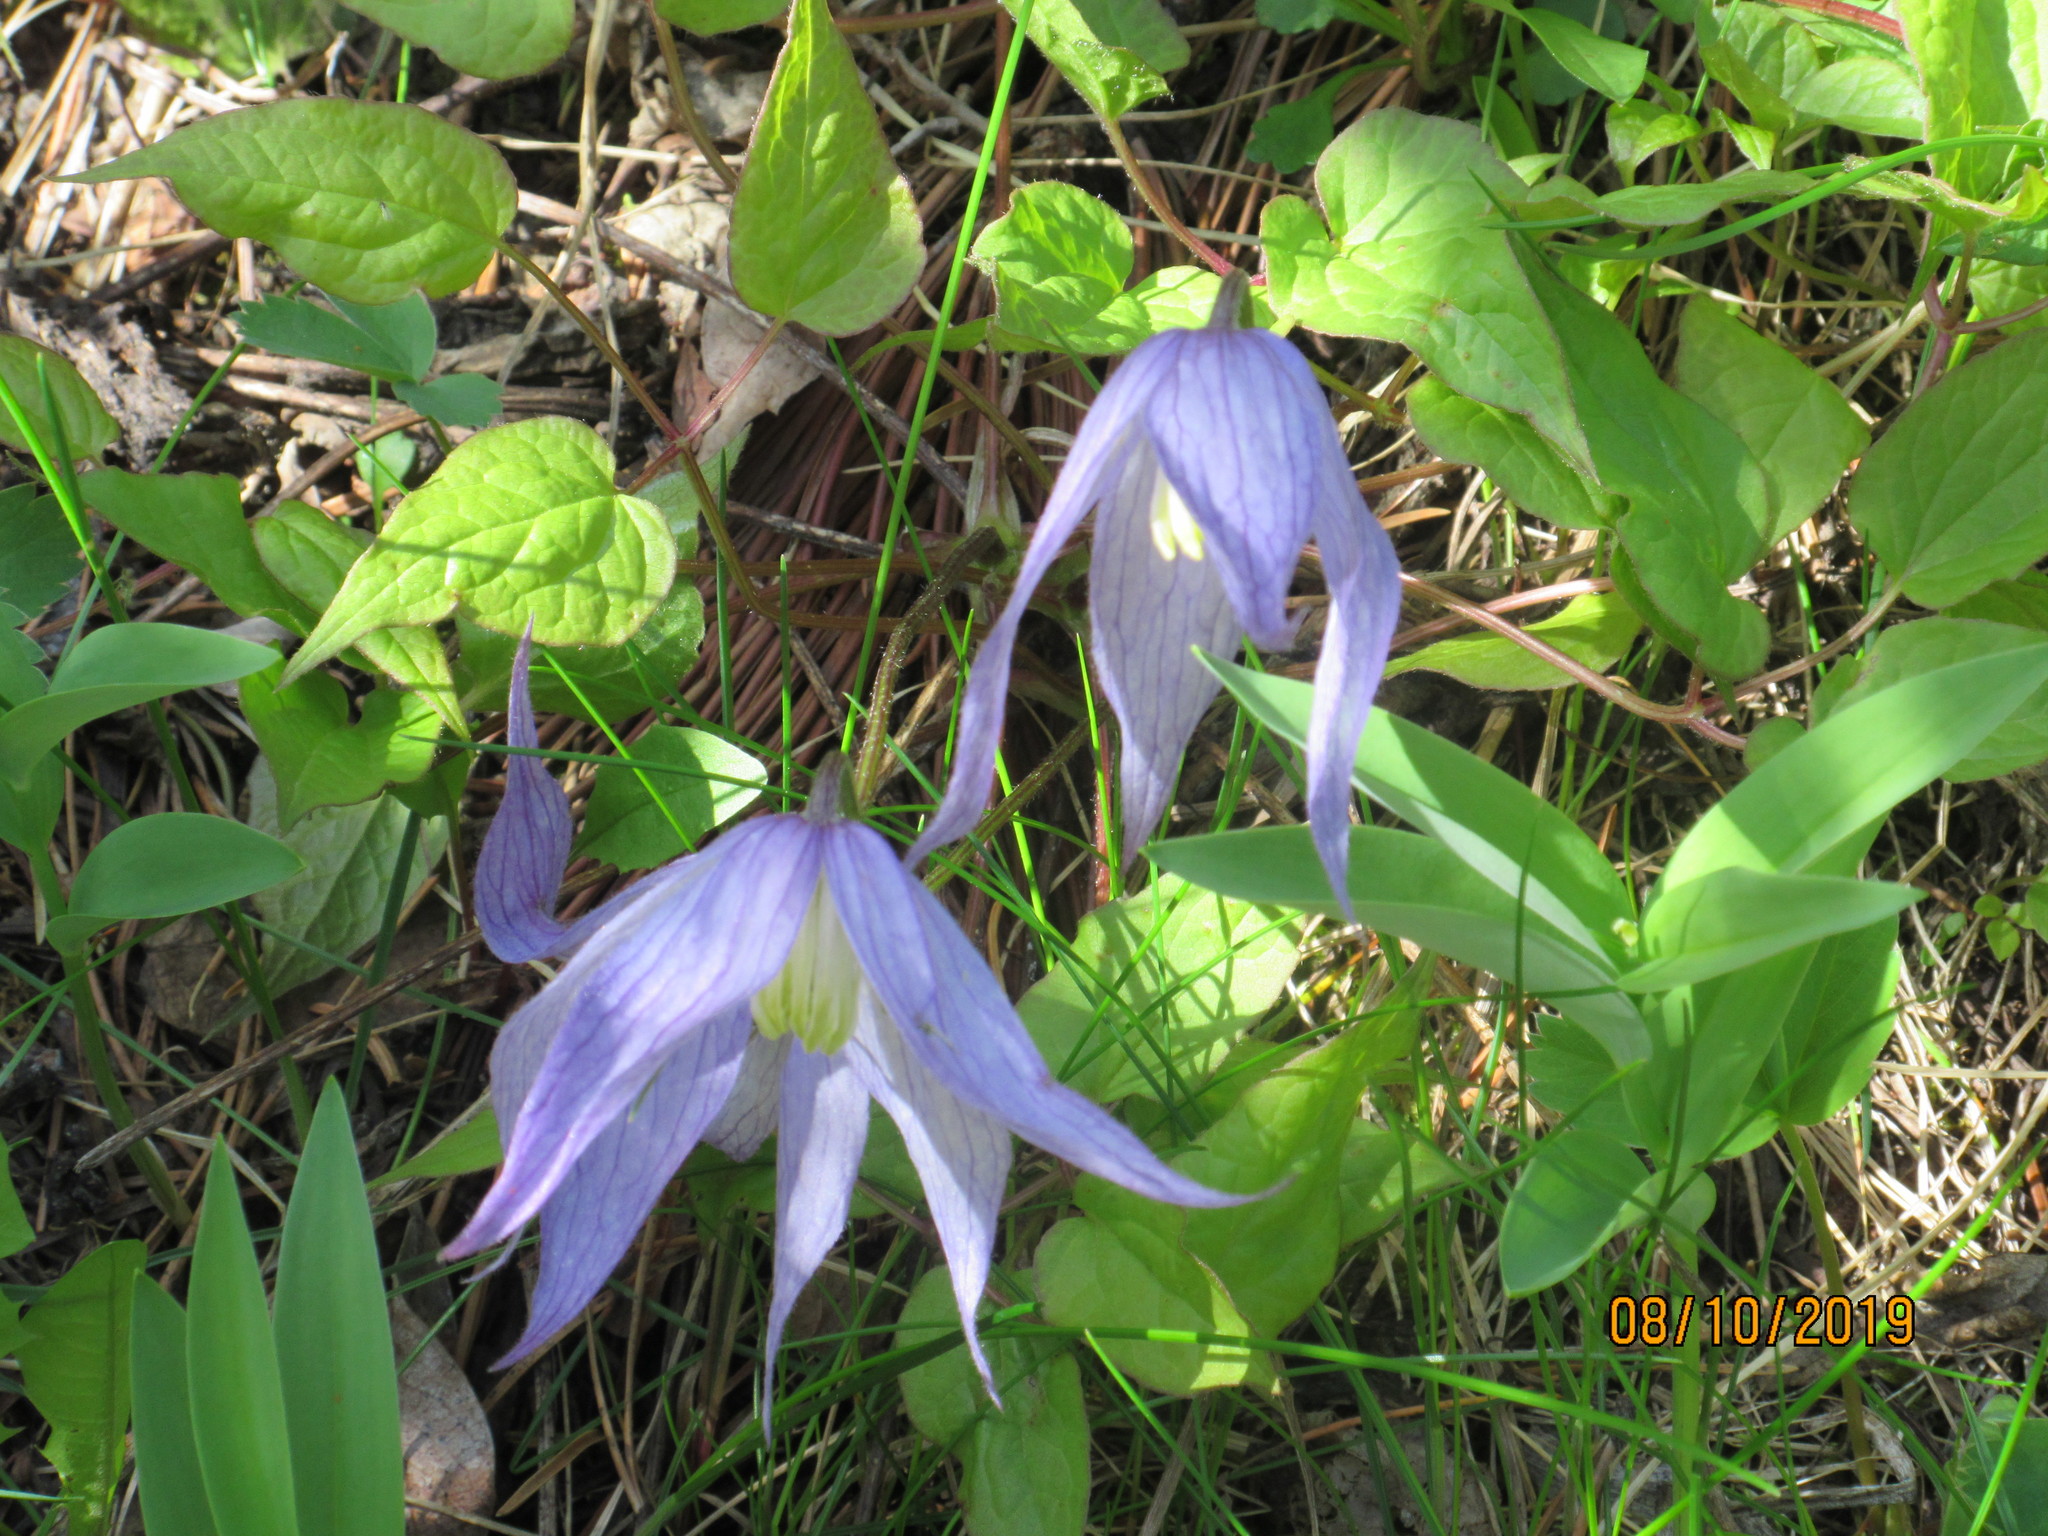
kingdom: Plantae
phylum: Tracheophyta
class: Magnoliopsida
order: Ranunculales
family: Ranunculaceae
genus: Clematis
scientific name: Clematis occidentalis
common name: Purple clematis
